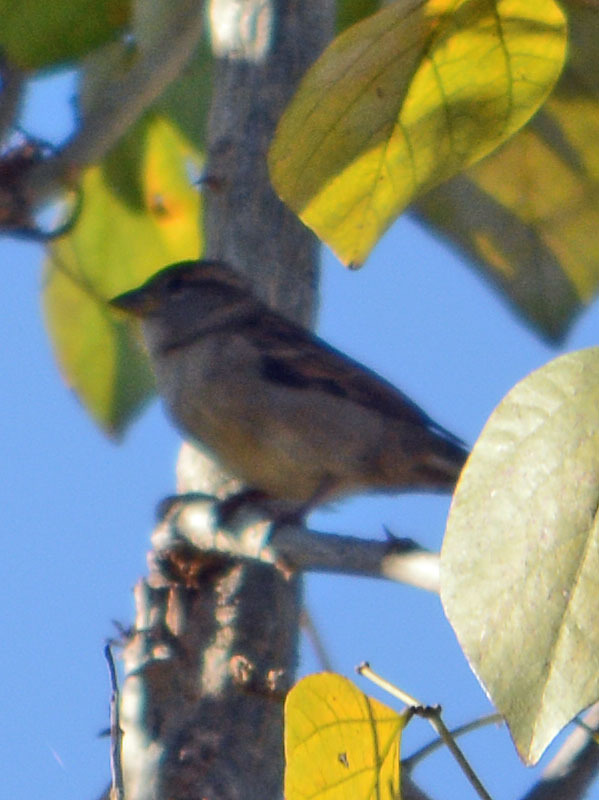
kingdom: Animalia
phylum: Chordata
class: Aves
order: Passeriformes
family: Passeridae
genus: Passer
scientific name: Passer domesticus
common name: House sparrow
